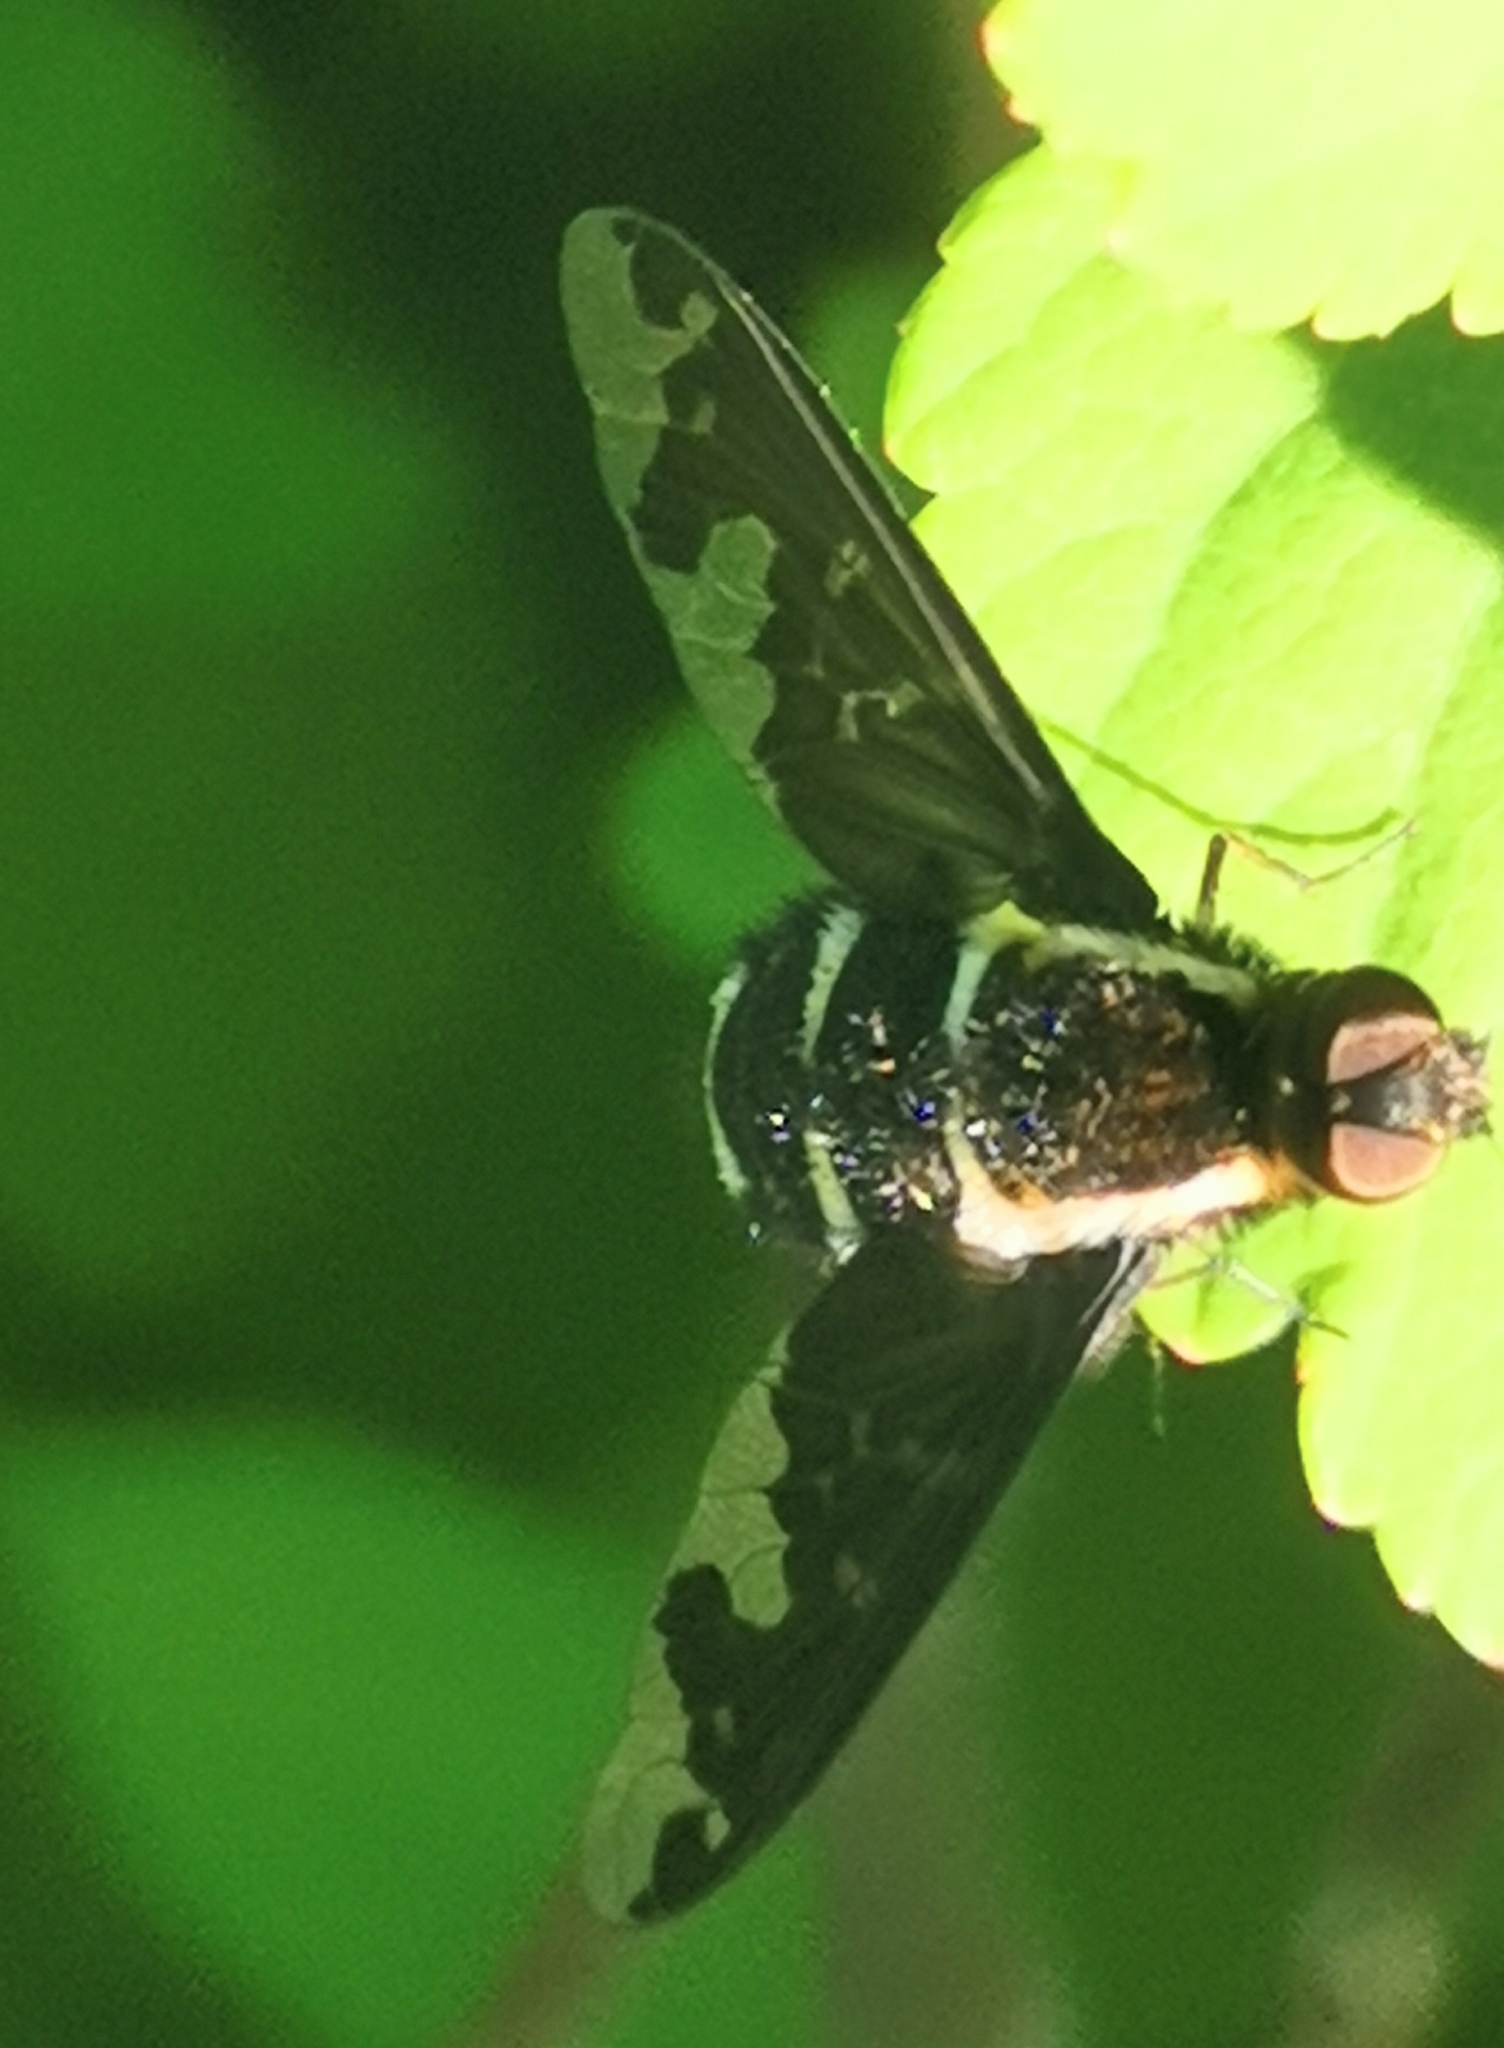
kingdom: Animalia
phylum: Arthropoda
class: Insecta
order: Diptera
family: Bombyliidae
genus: Hemipenthes
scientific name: Hemipenthes maura
